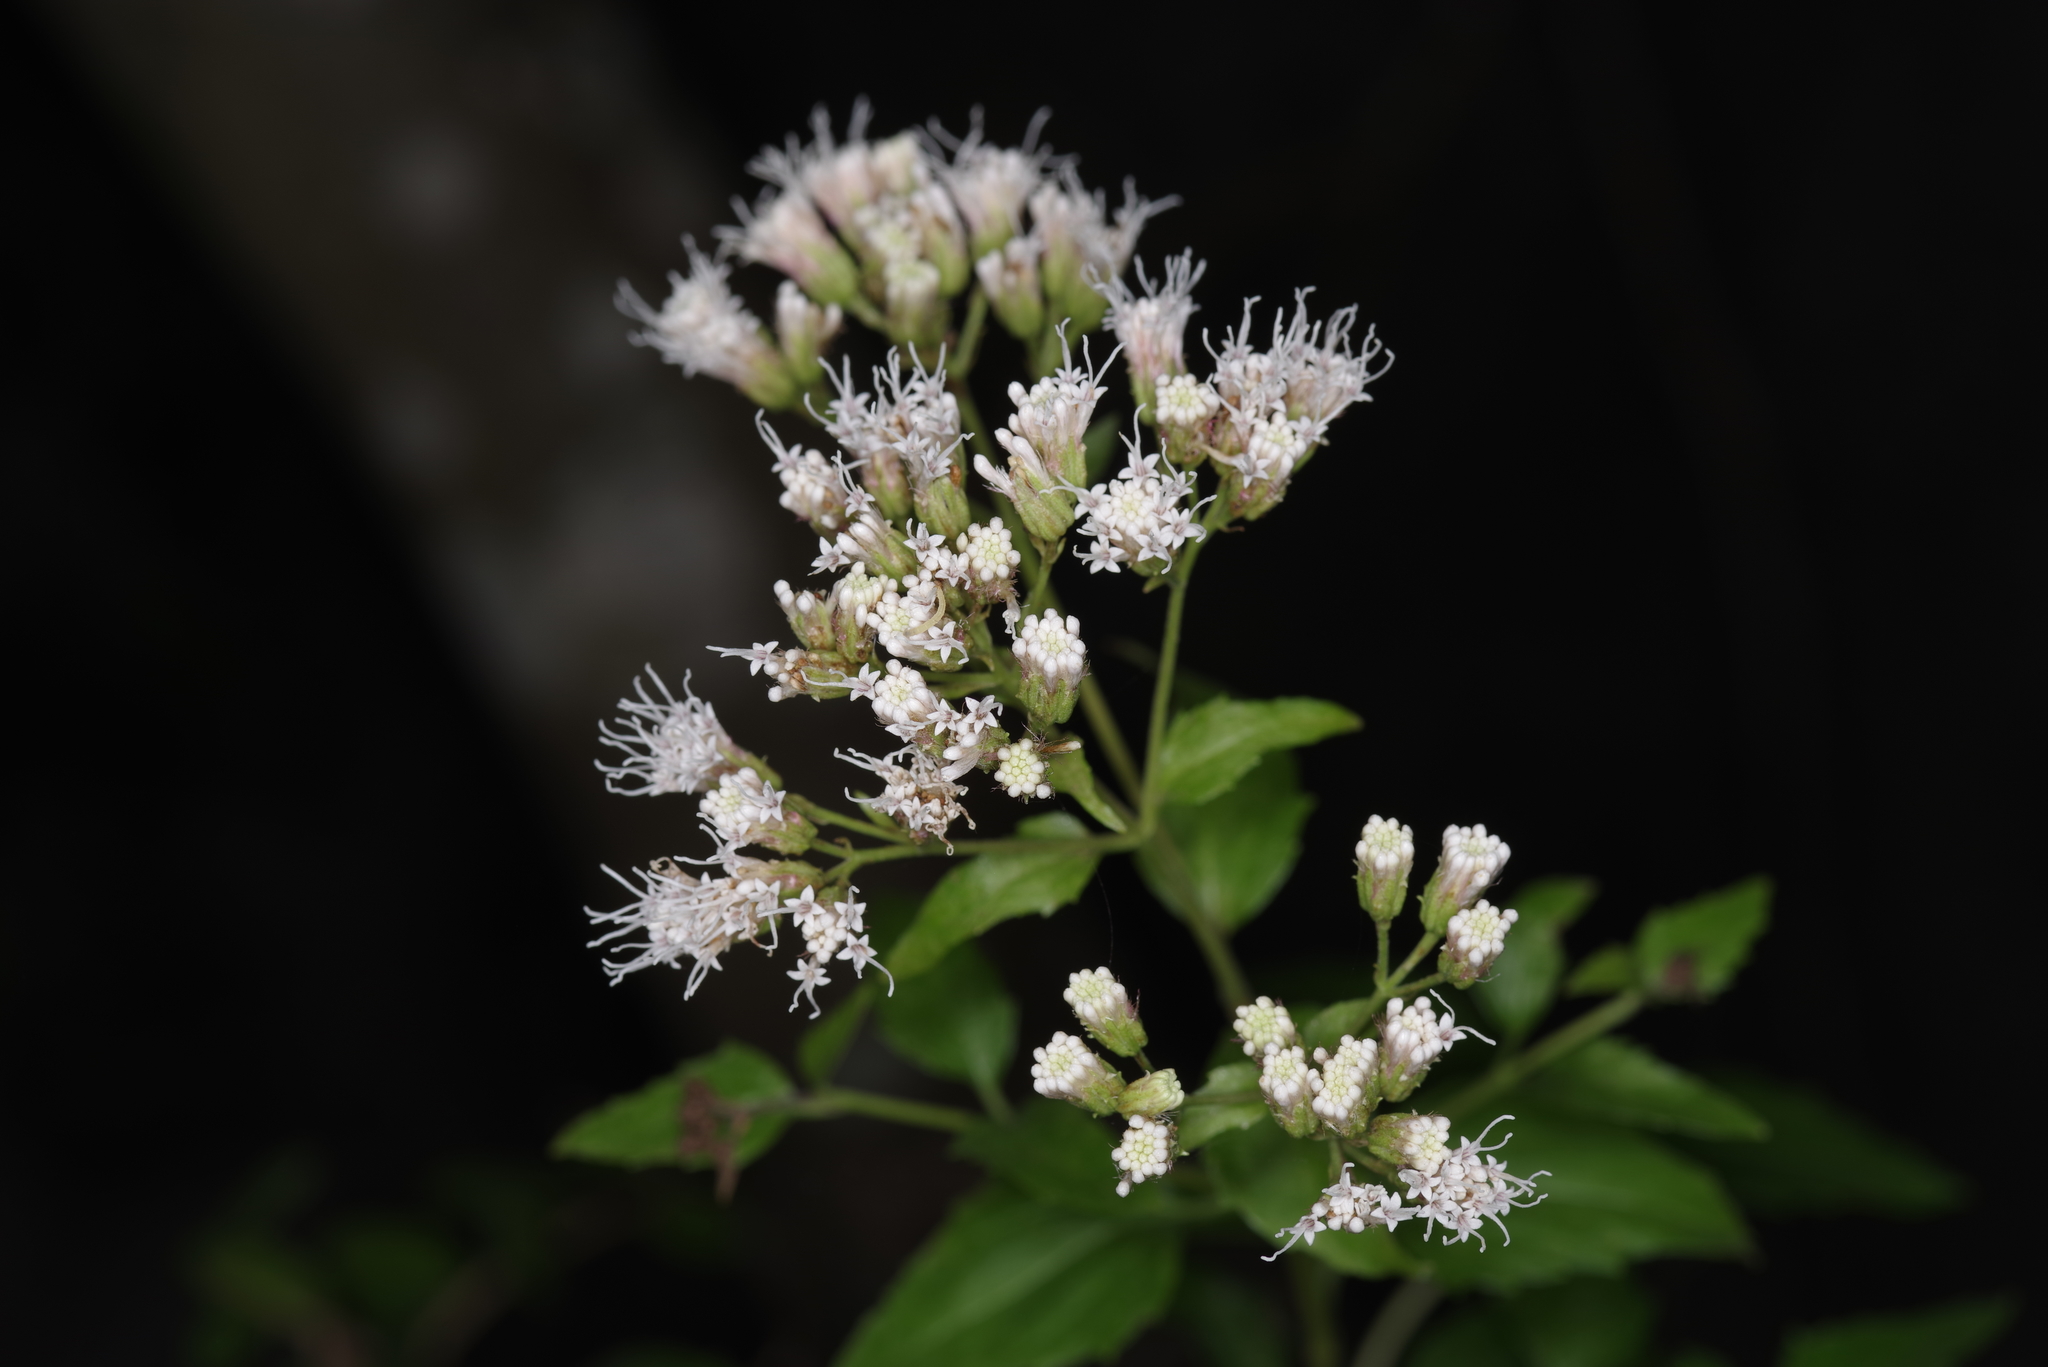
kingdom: Plantae
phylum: Tracheophyta
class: Magnoliopsida
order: Asterales
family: Asteraceae
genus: Ageratina
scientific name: Ageratina havanensis
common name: Havana snakeroot
